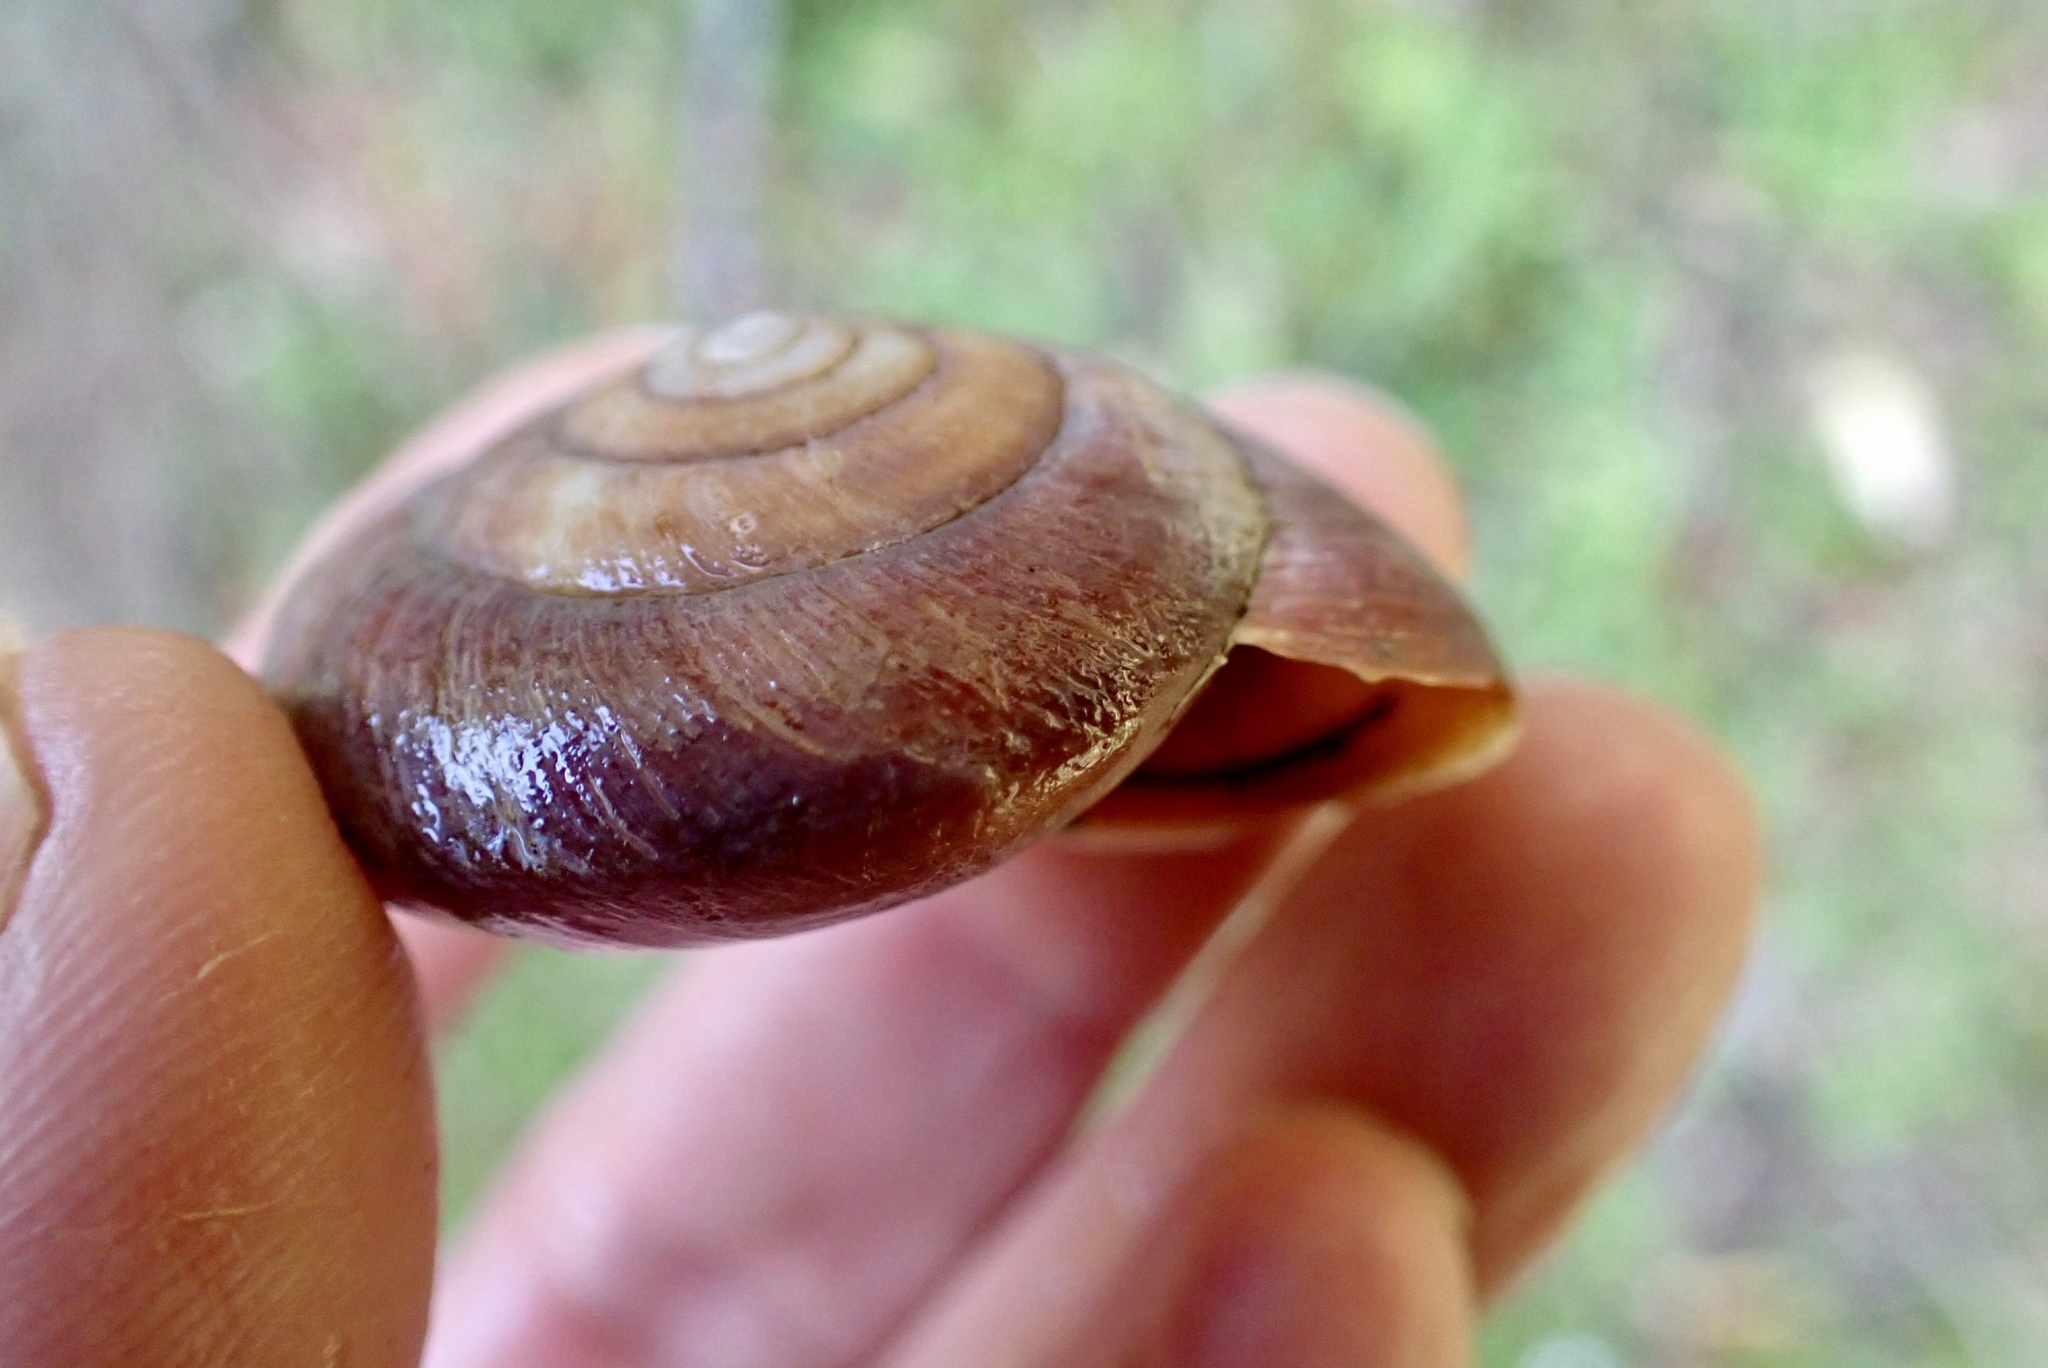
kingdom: Animalia
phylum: Mollusca
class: Gastropoda
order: Stylommatophora
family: Xanthonychidae
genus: Monadenia
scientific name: Monadenia infumata
